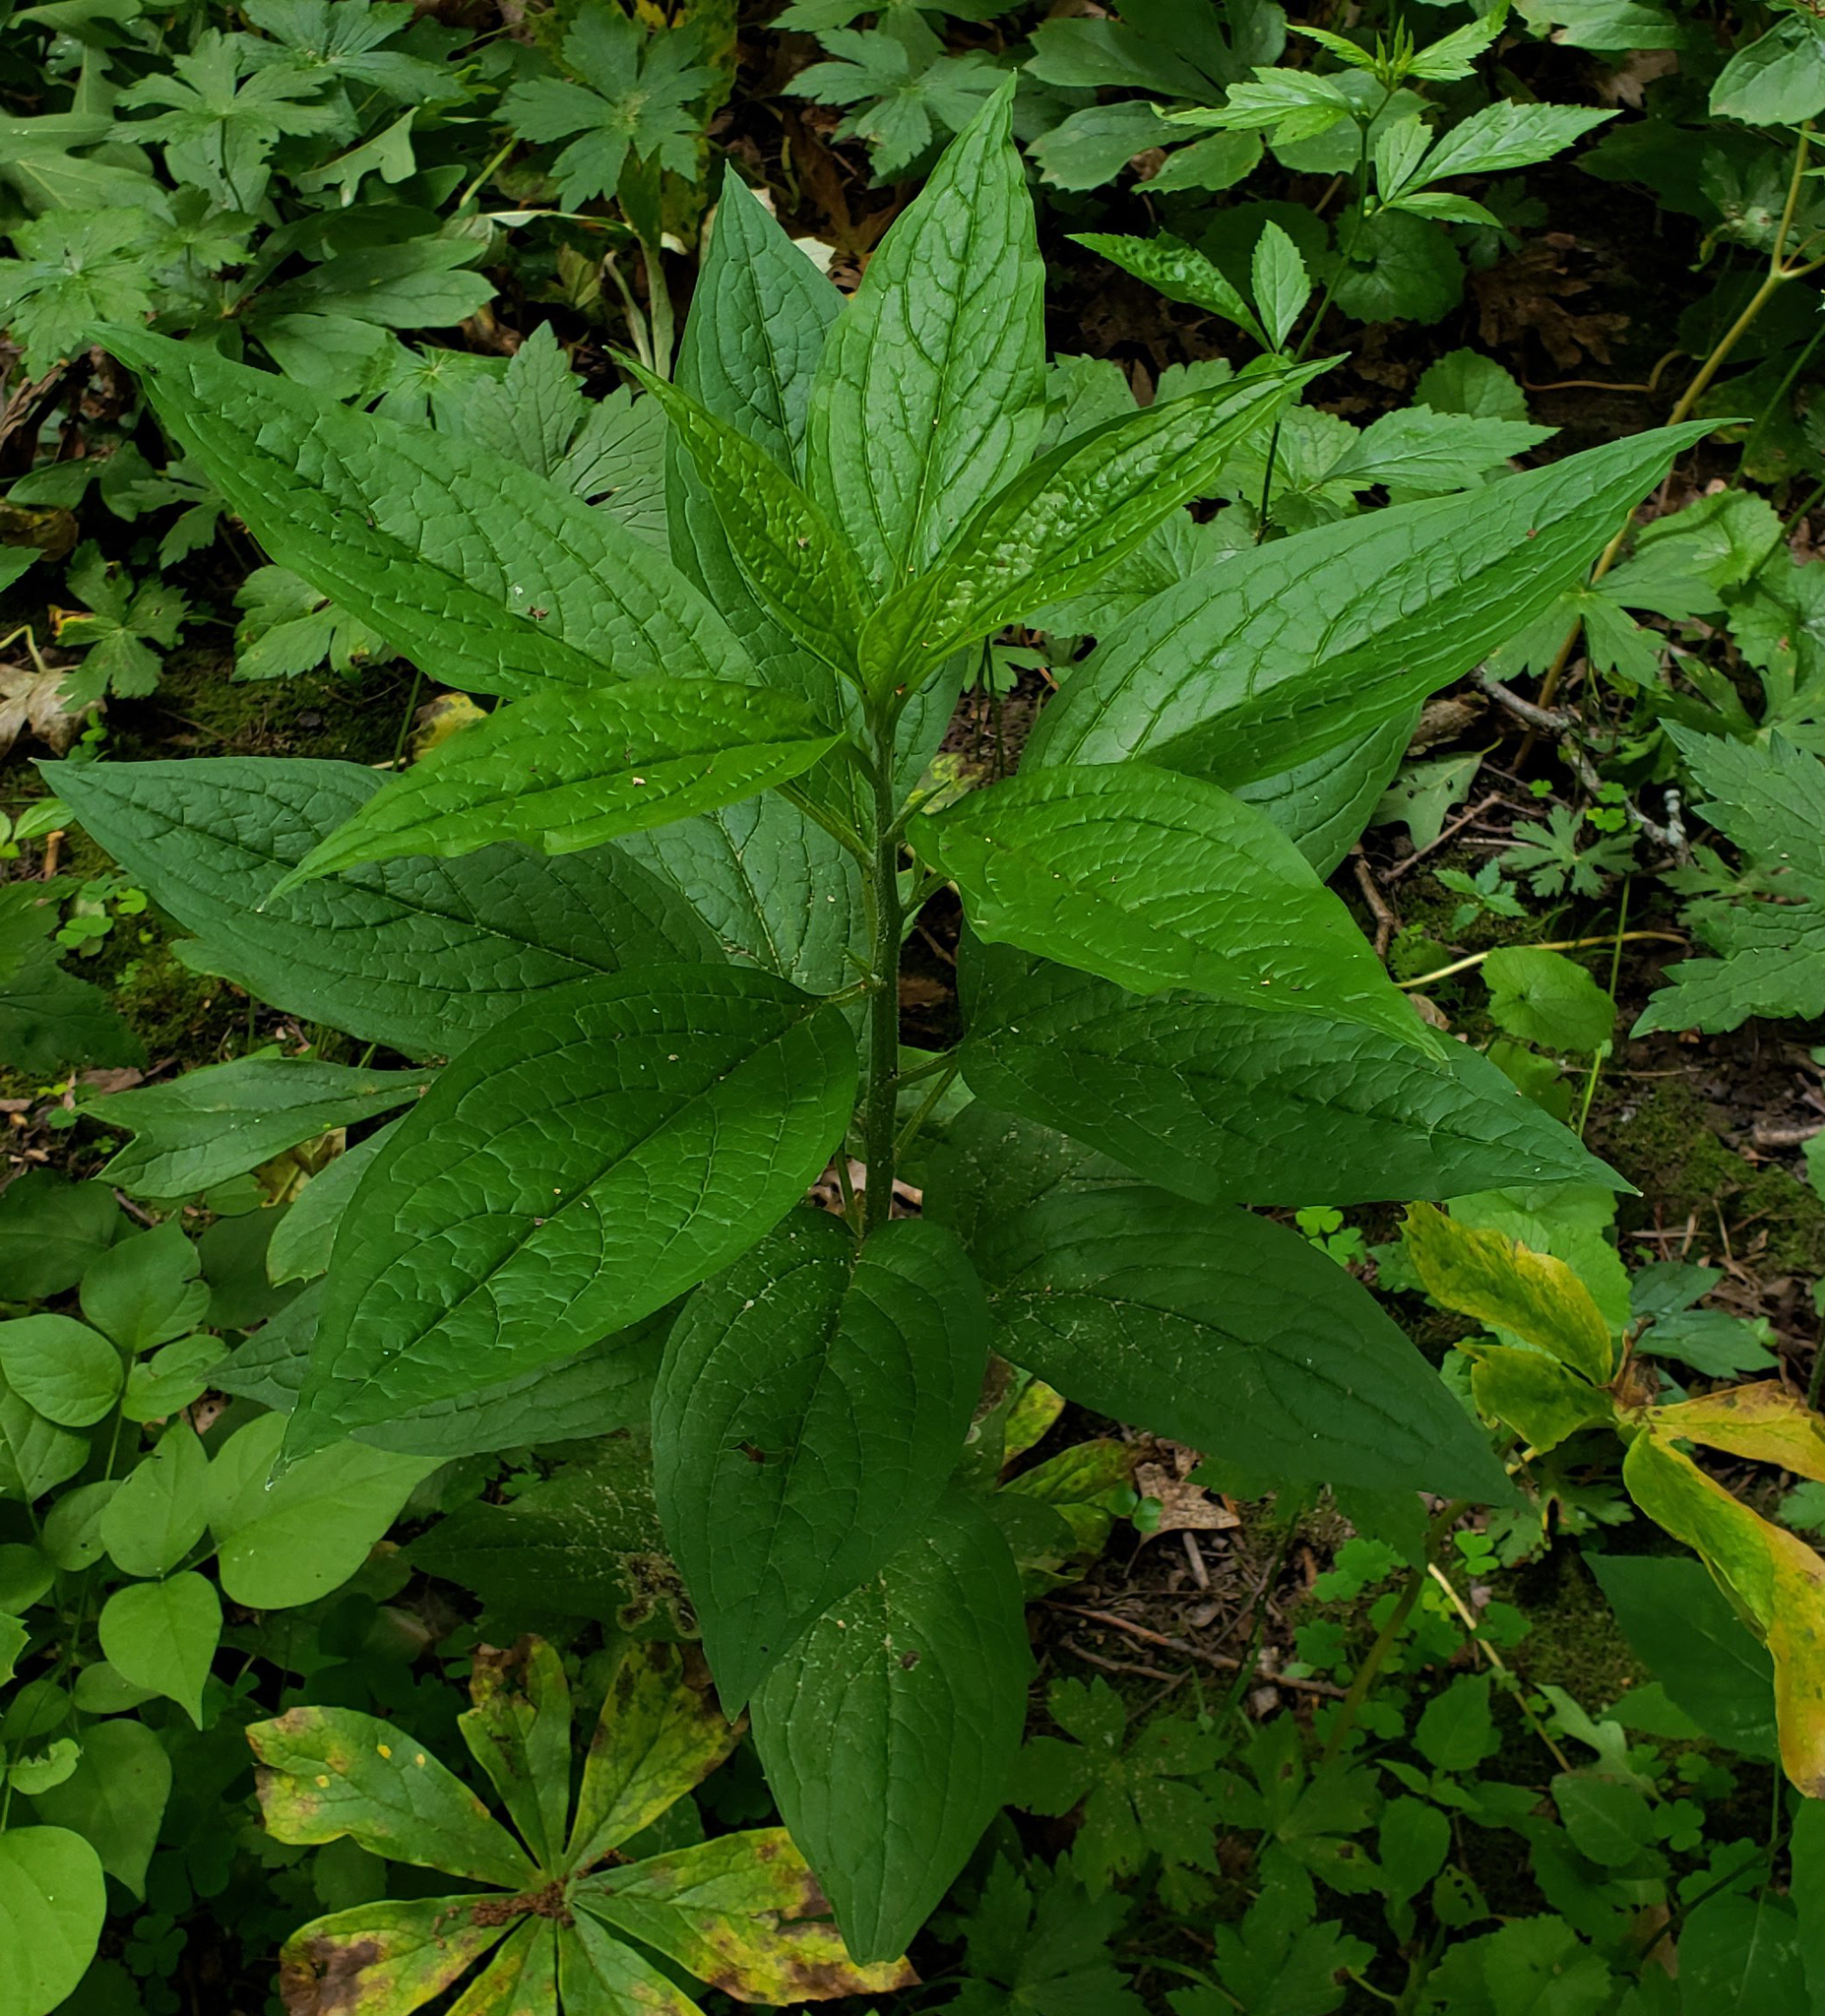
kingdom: Plantae
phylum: Tracheophyta
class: Magnoliopsida
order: Boraginales
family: Boraginaceae
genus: Hackelia
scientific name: Hackelia virginiana
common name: Beggar's-lice
